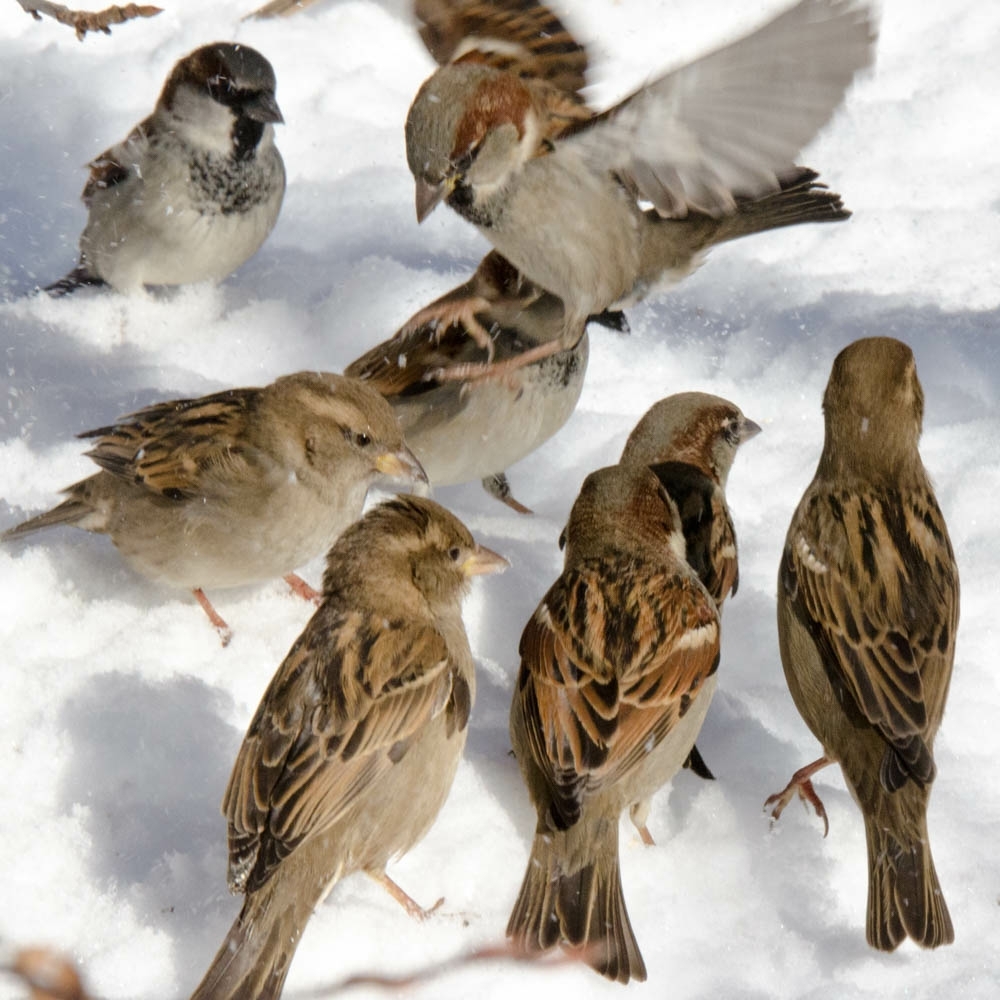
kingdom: Animalia
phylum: Chordata
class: Aves
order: Passeriformes
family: Passeridae
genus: Passer
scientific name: Passer domesticus
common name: House sparrow
